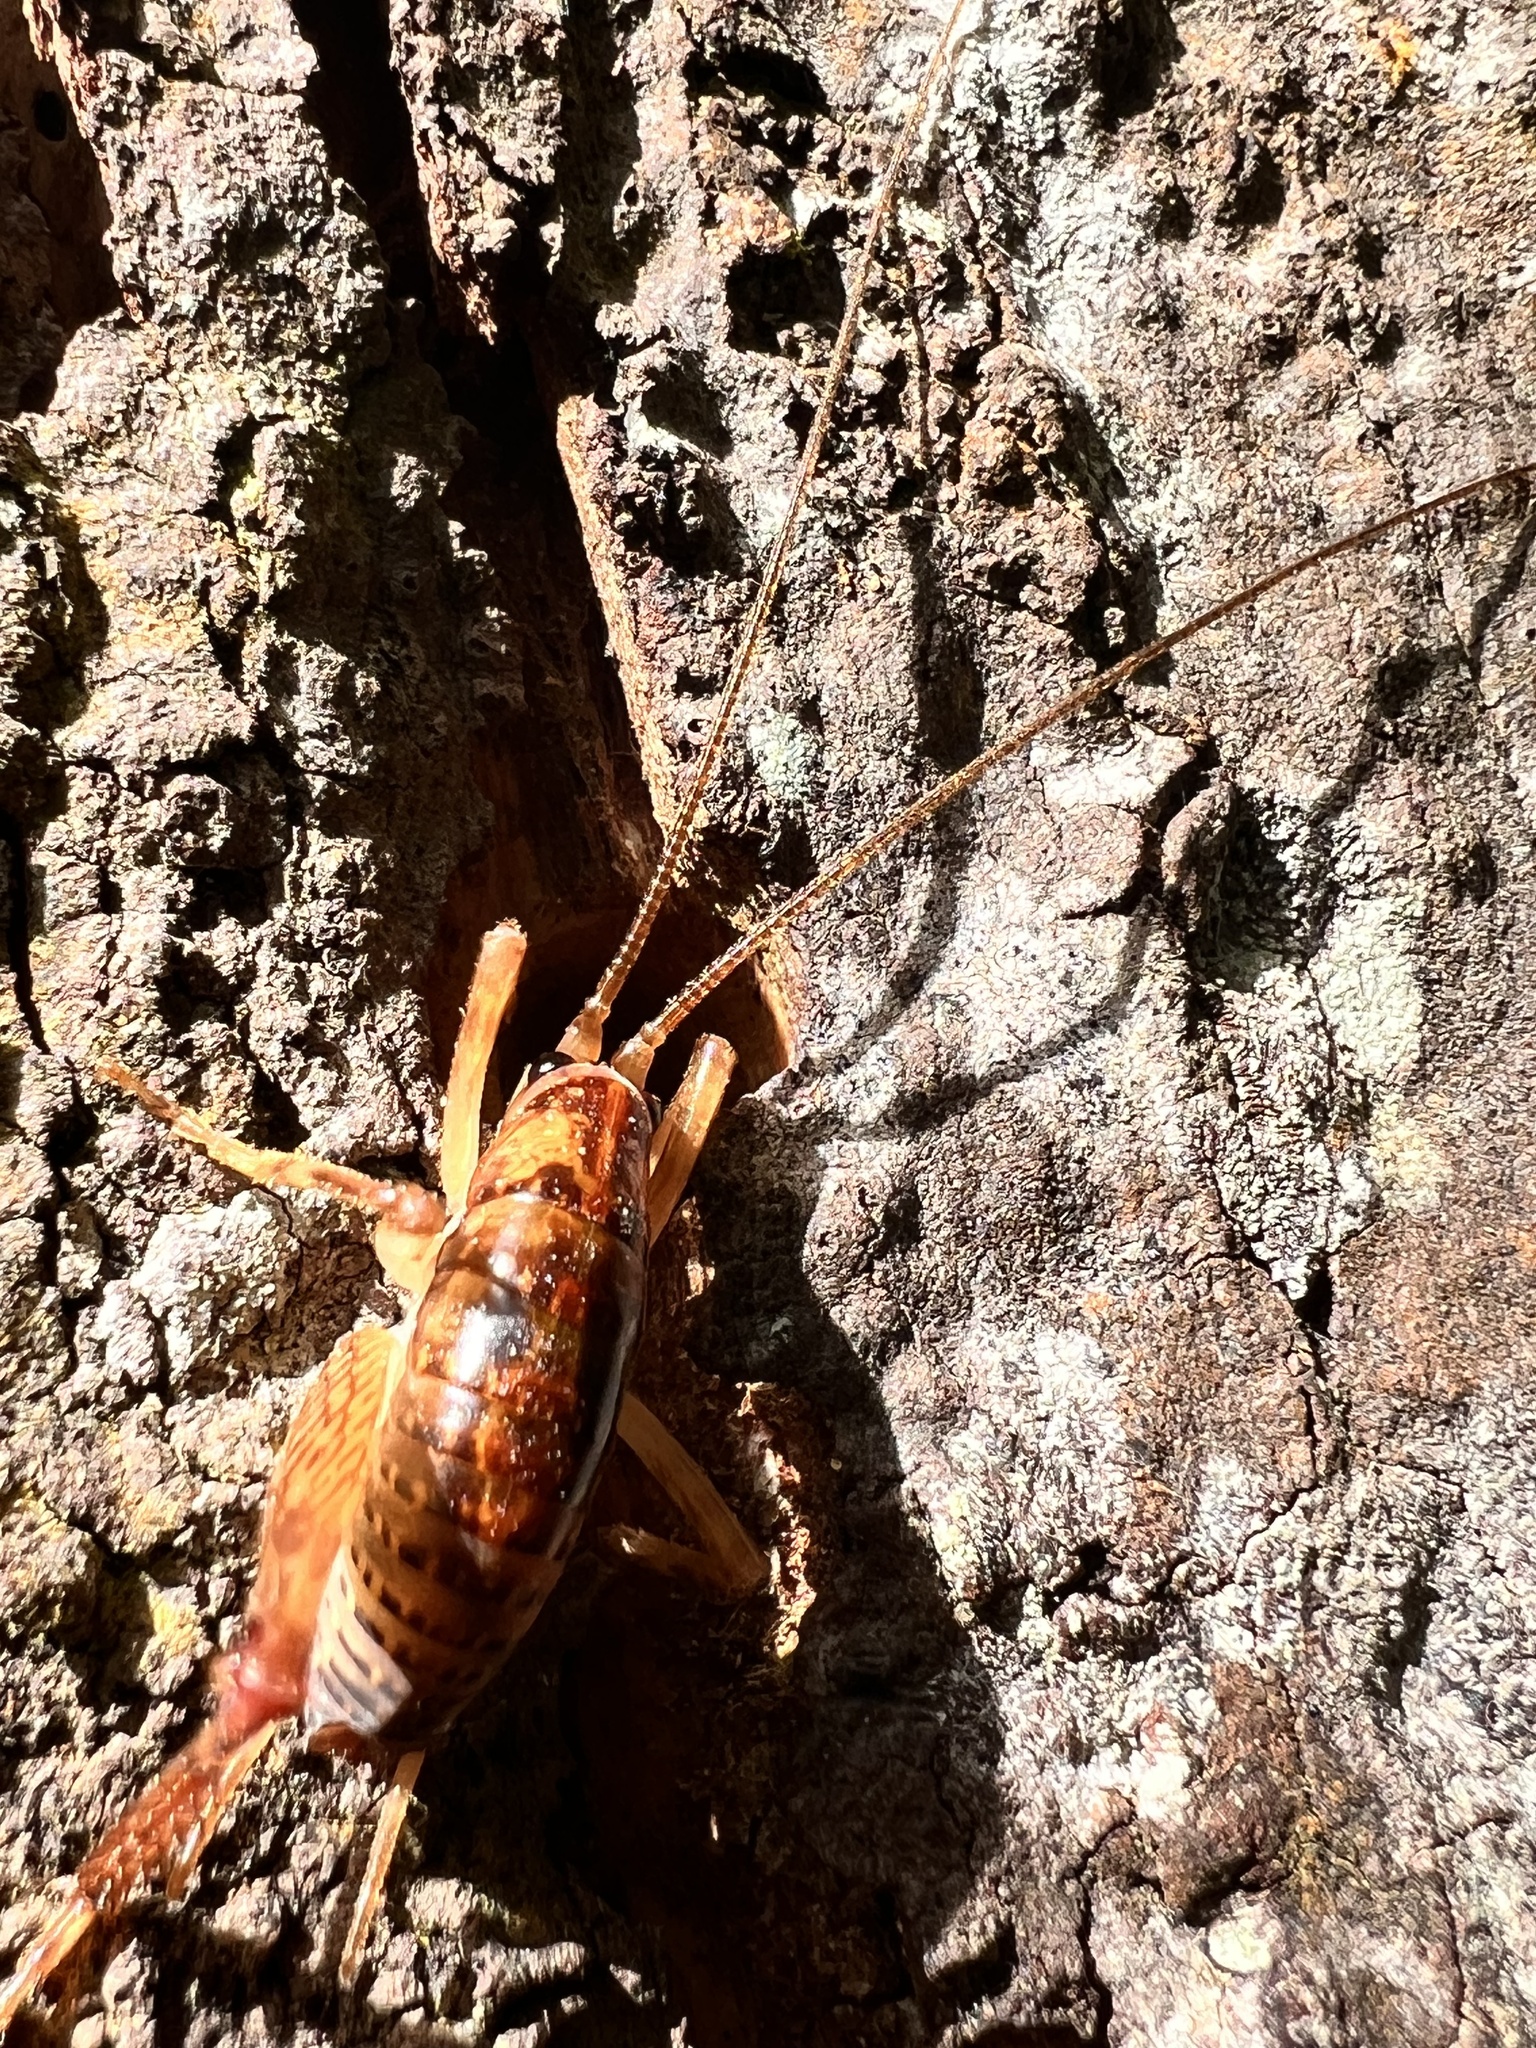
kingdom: Animalia
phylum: Arthropoda
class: Insecta
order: Orthoptera
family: Rhaphidophoridae
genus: Talitropsis
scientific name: Talitropsis sedilloti
